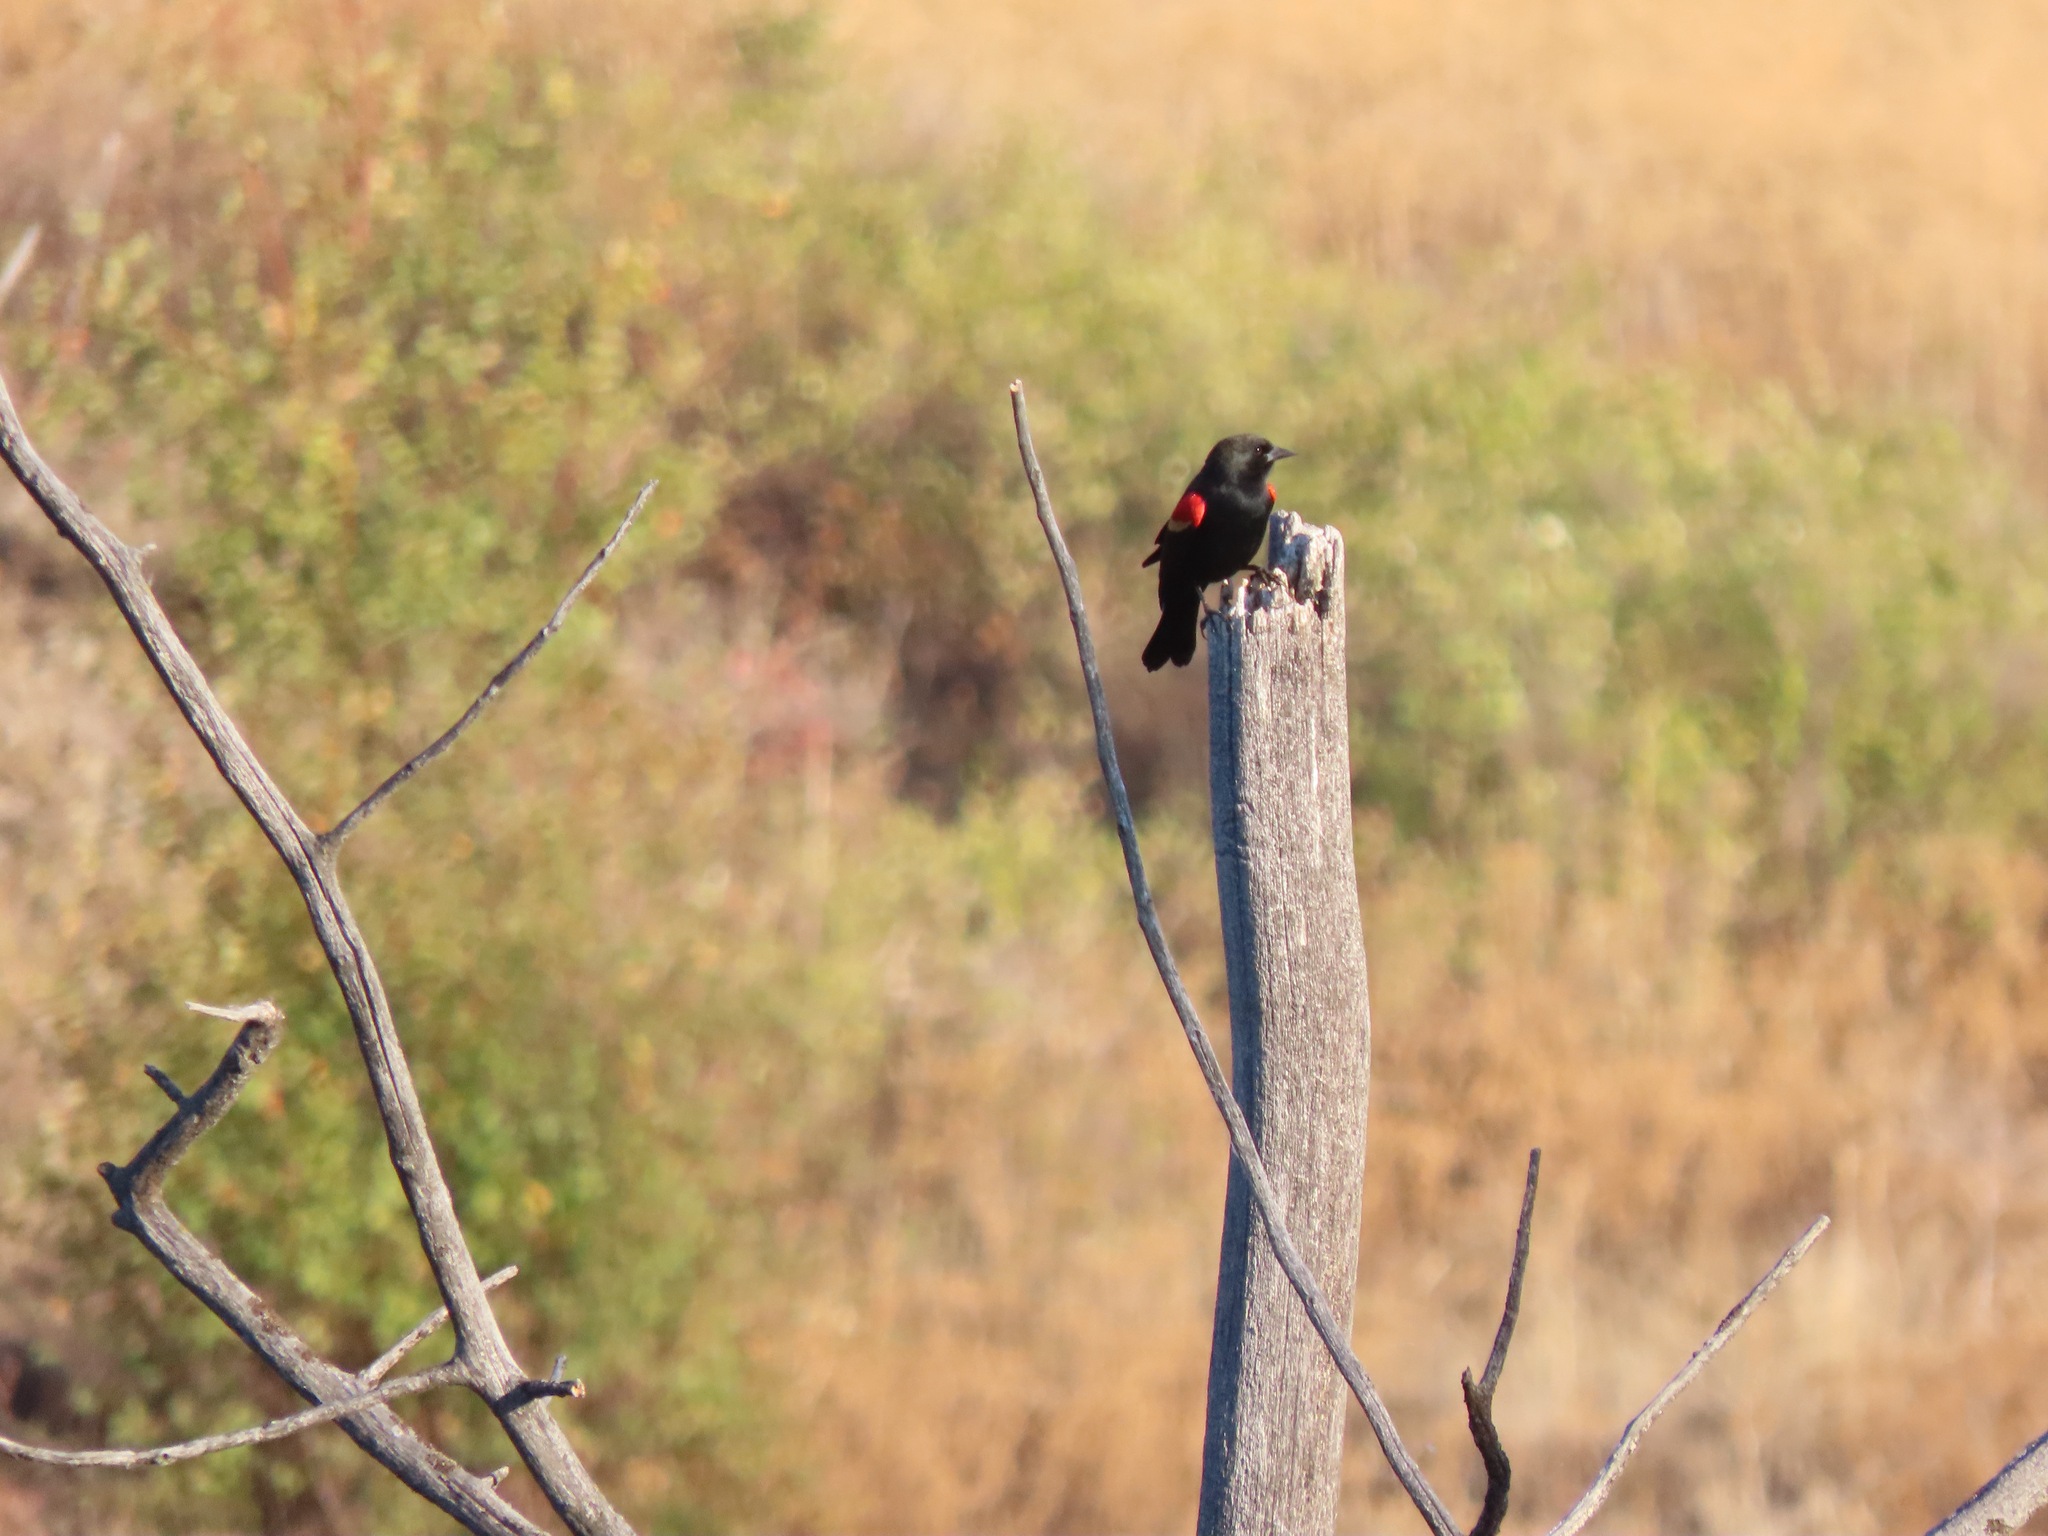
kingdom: Animalia
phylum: Chordata
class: Aves
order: Passeriformes
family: Icteridae
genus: Agelaius
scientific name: Agelaius phoeniceus
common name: Red-winged blackbird
